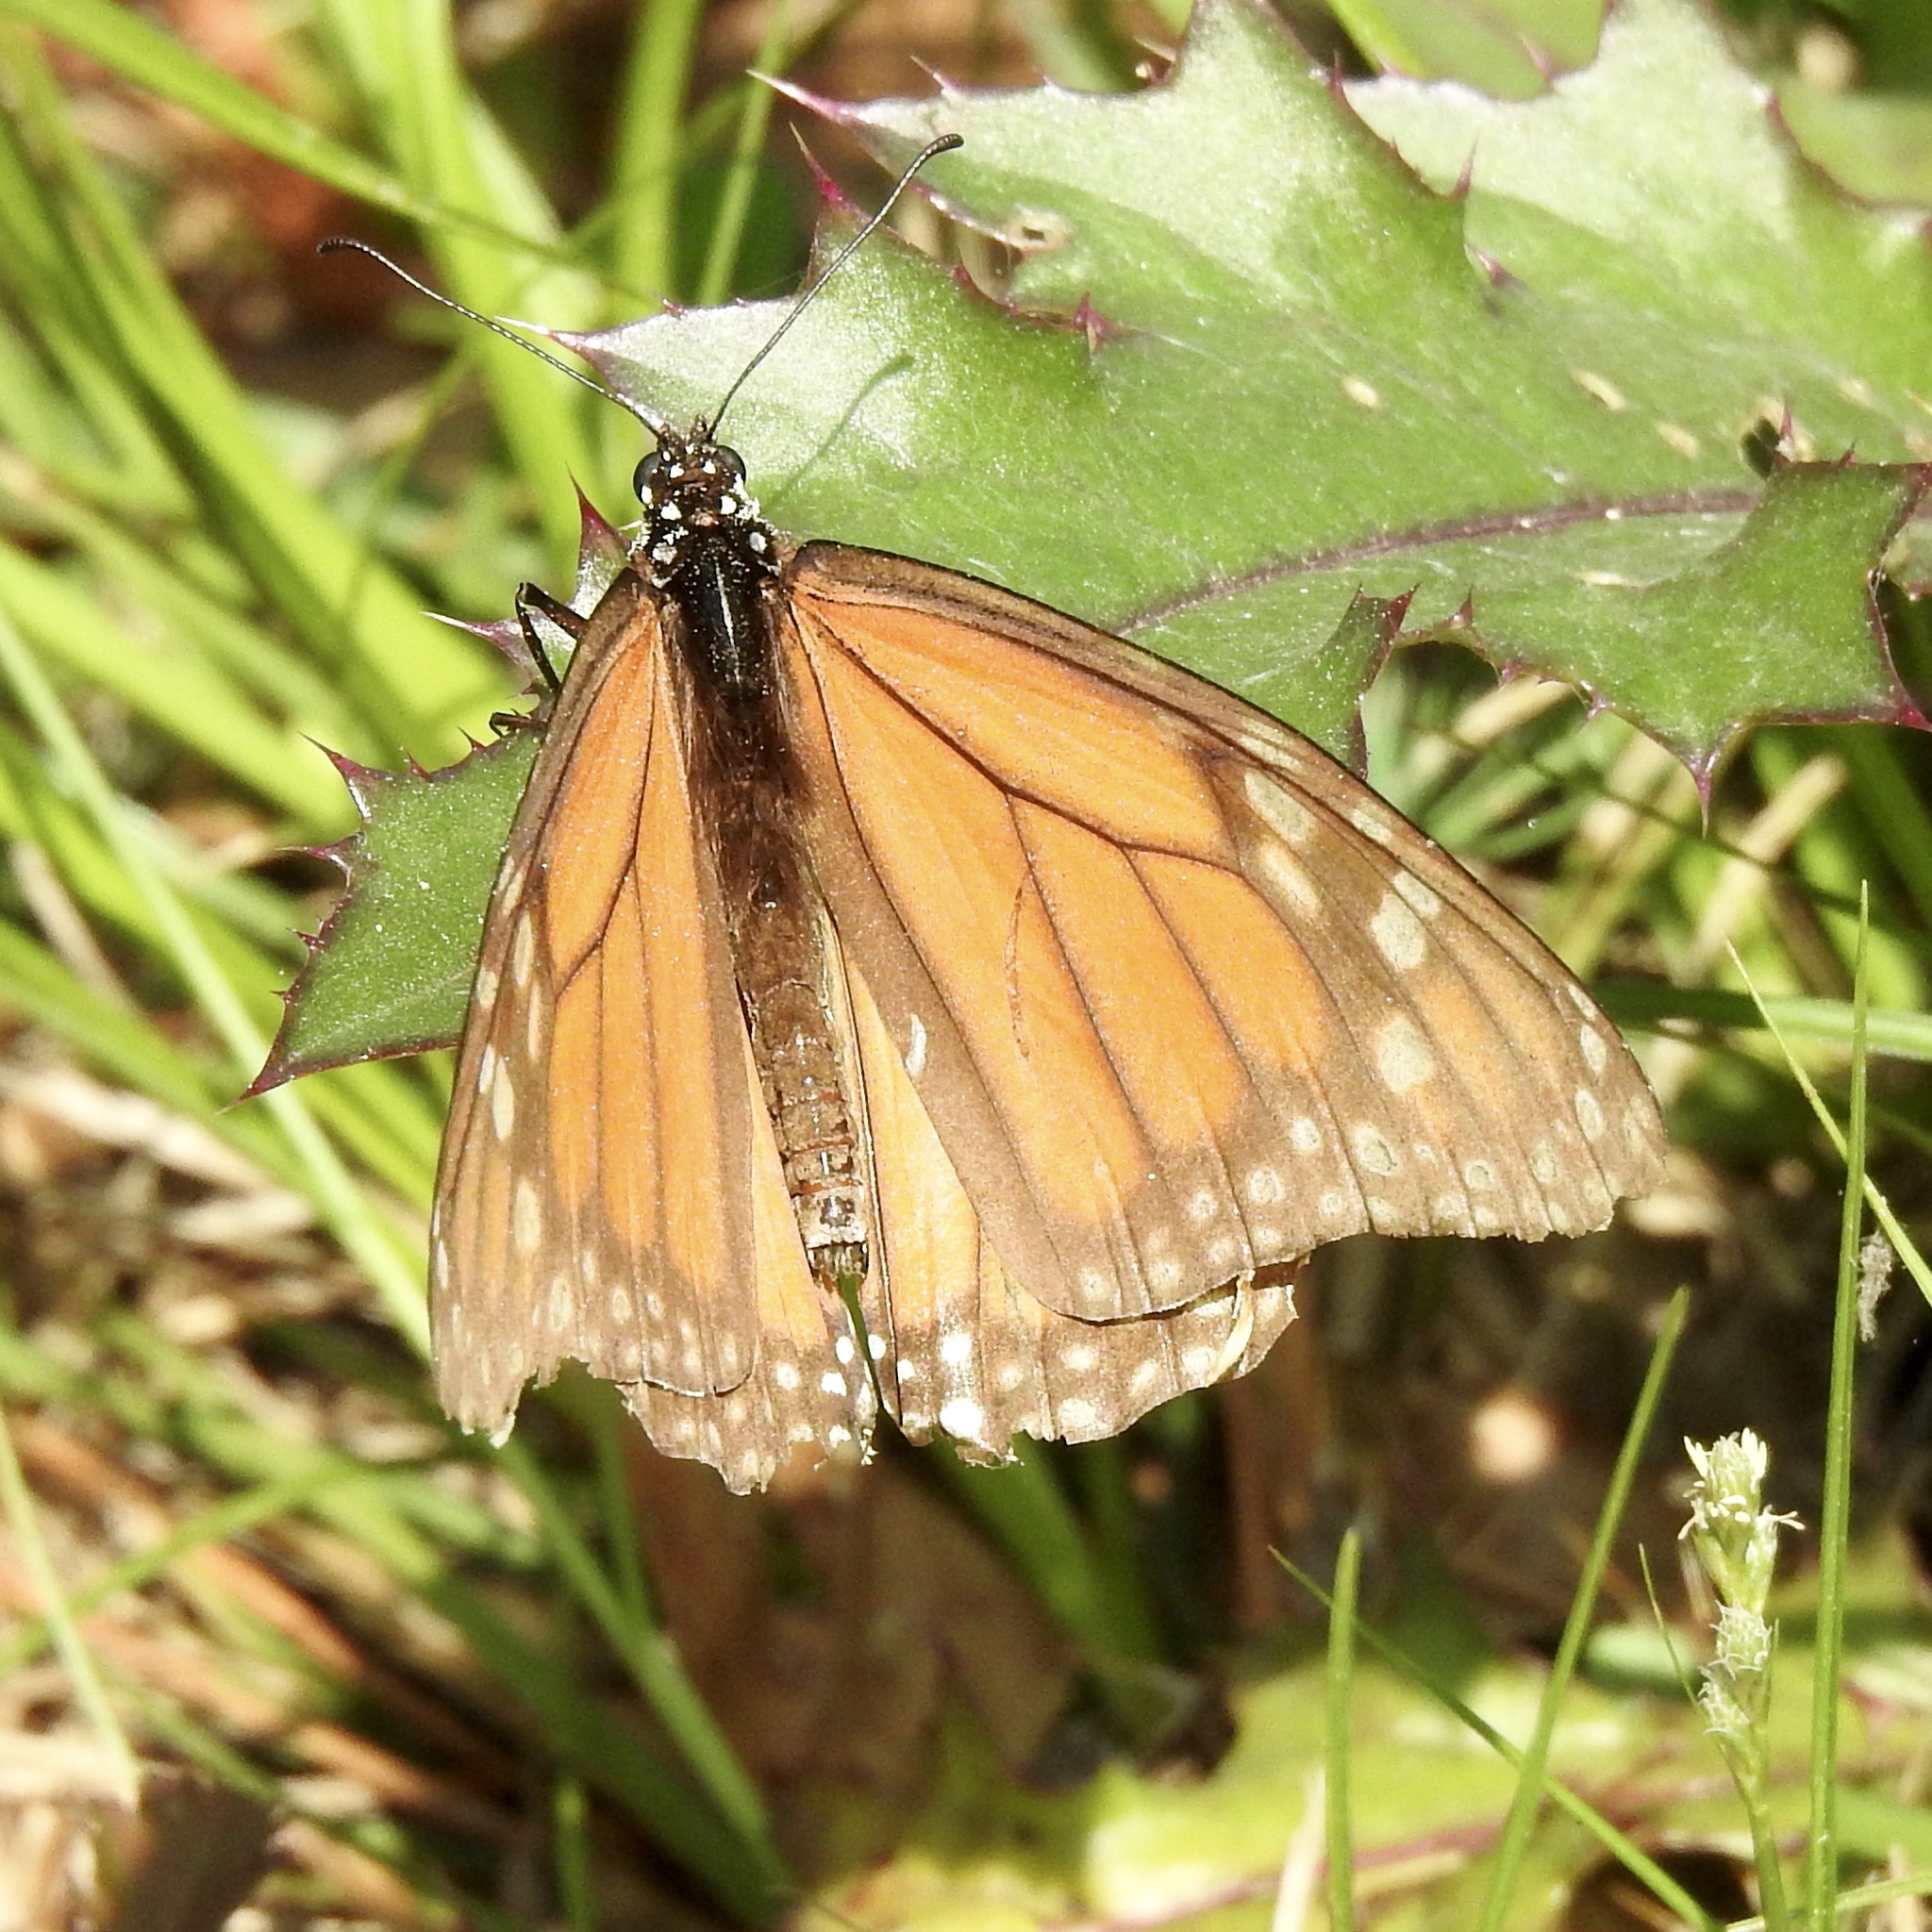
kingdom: Animalia
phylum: Arthropoda
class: Insecta
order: Lepidoptera
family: Nymphalidae
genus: Danaus
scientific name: Danaus plexippus
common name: Monarch
